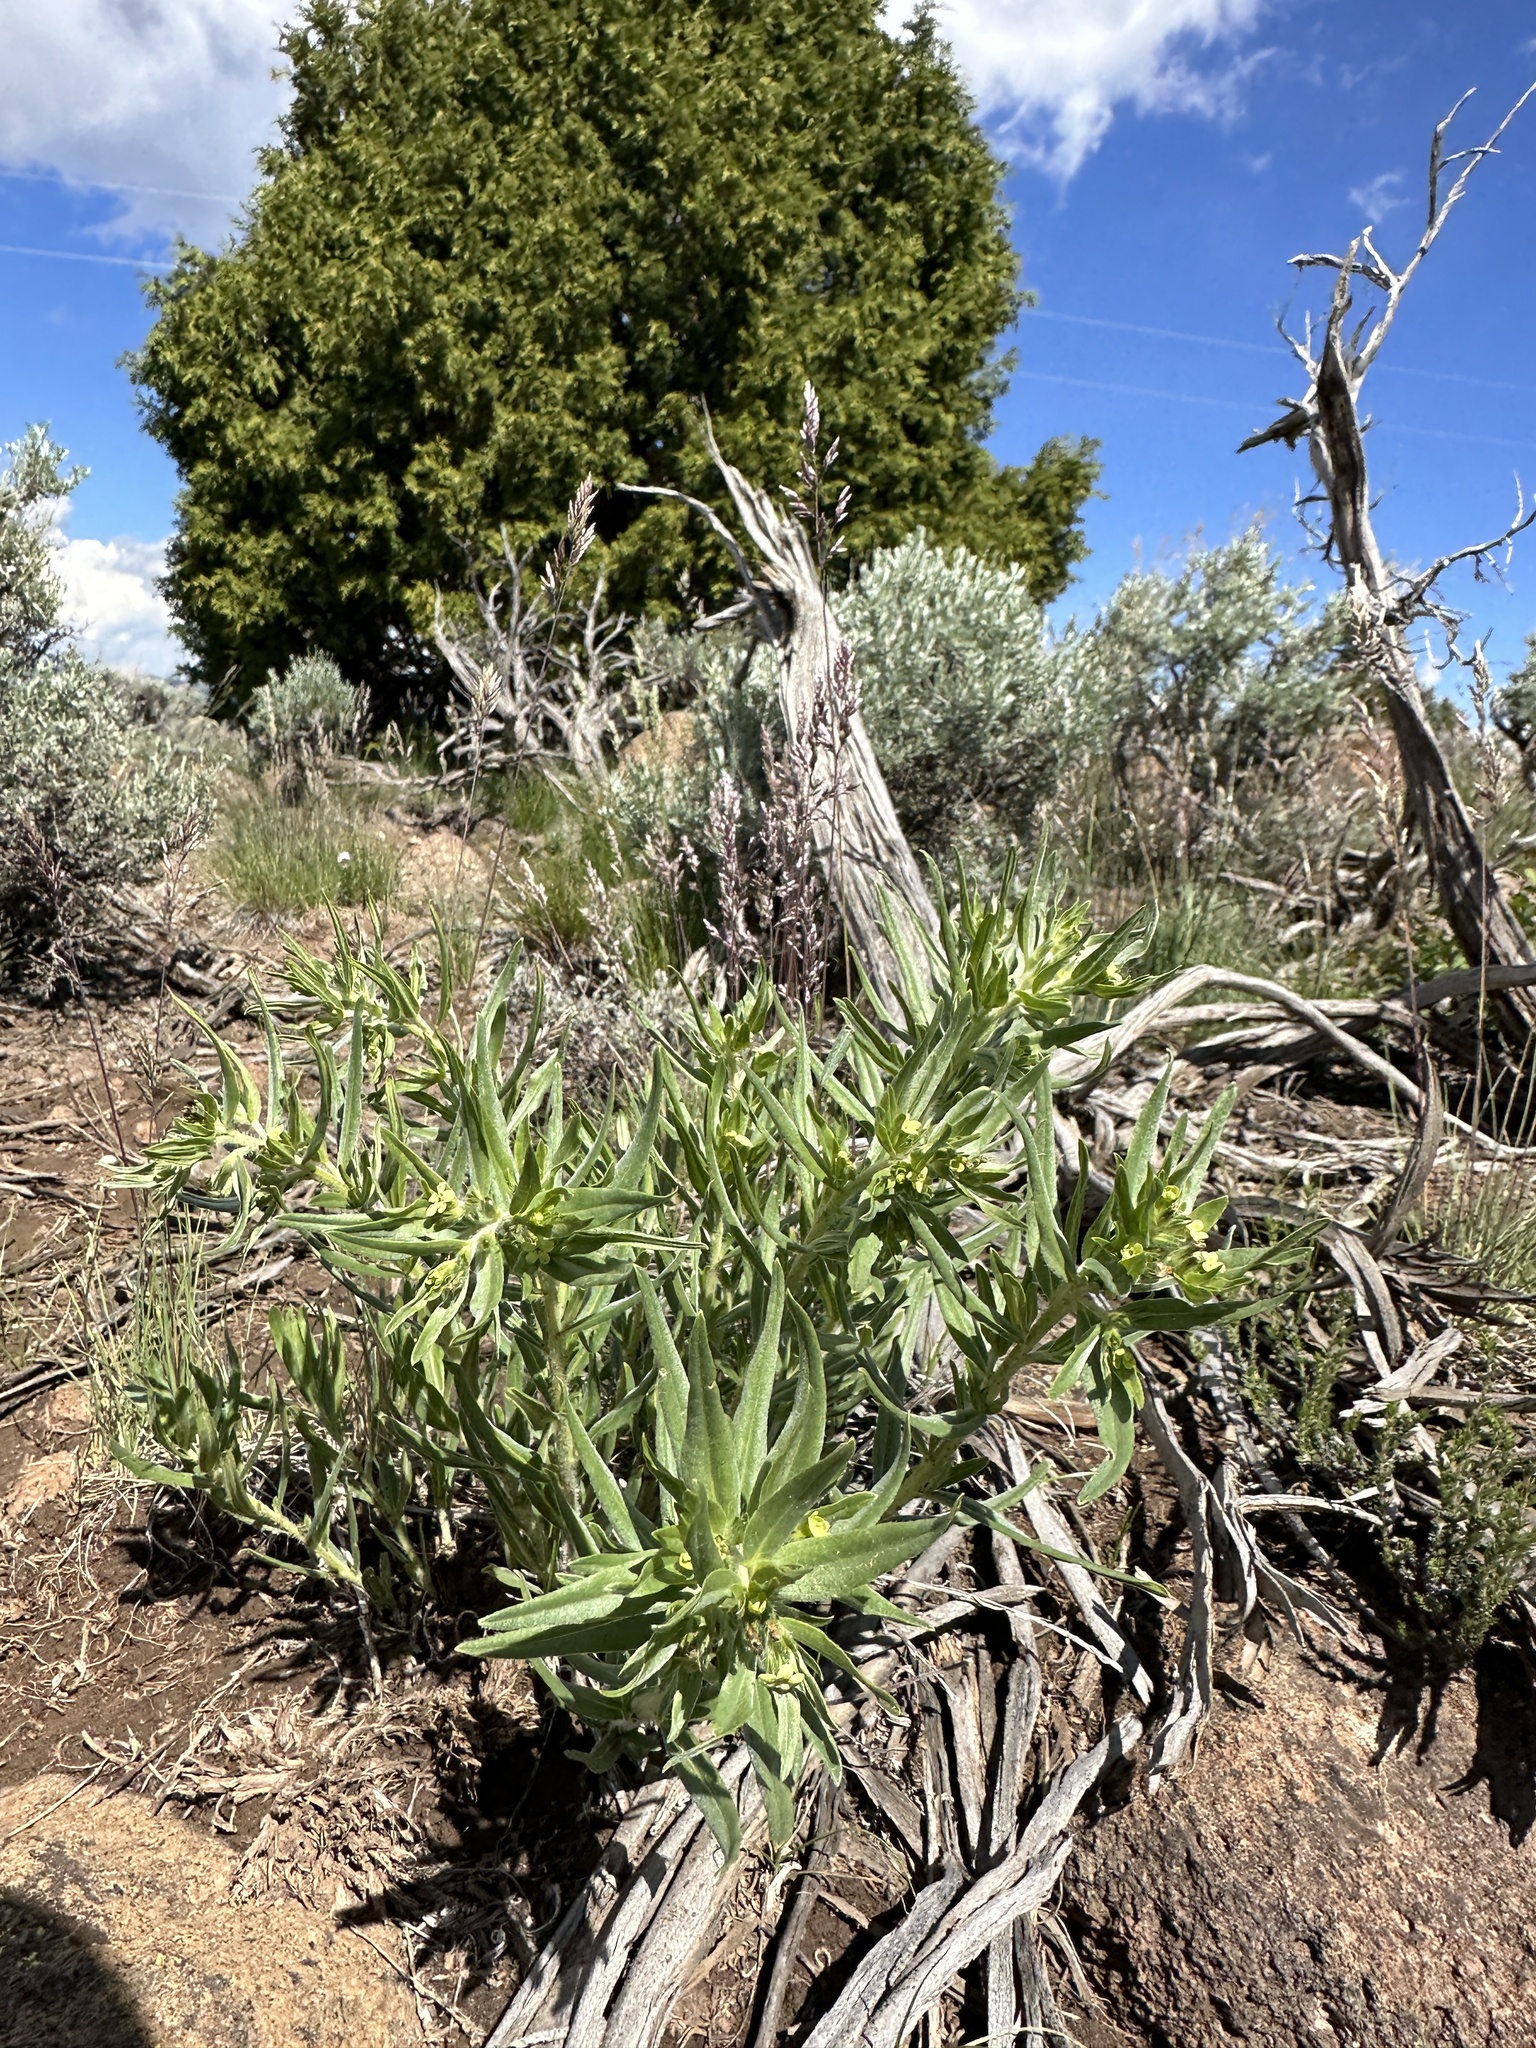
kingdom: Plantae
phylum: Tracheophyta
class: Magnoliopsida
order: Boraginales
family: Boraginaceae
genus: Lithospermum
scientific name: Lithospermum ruderale
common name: Western gromwell
